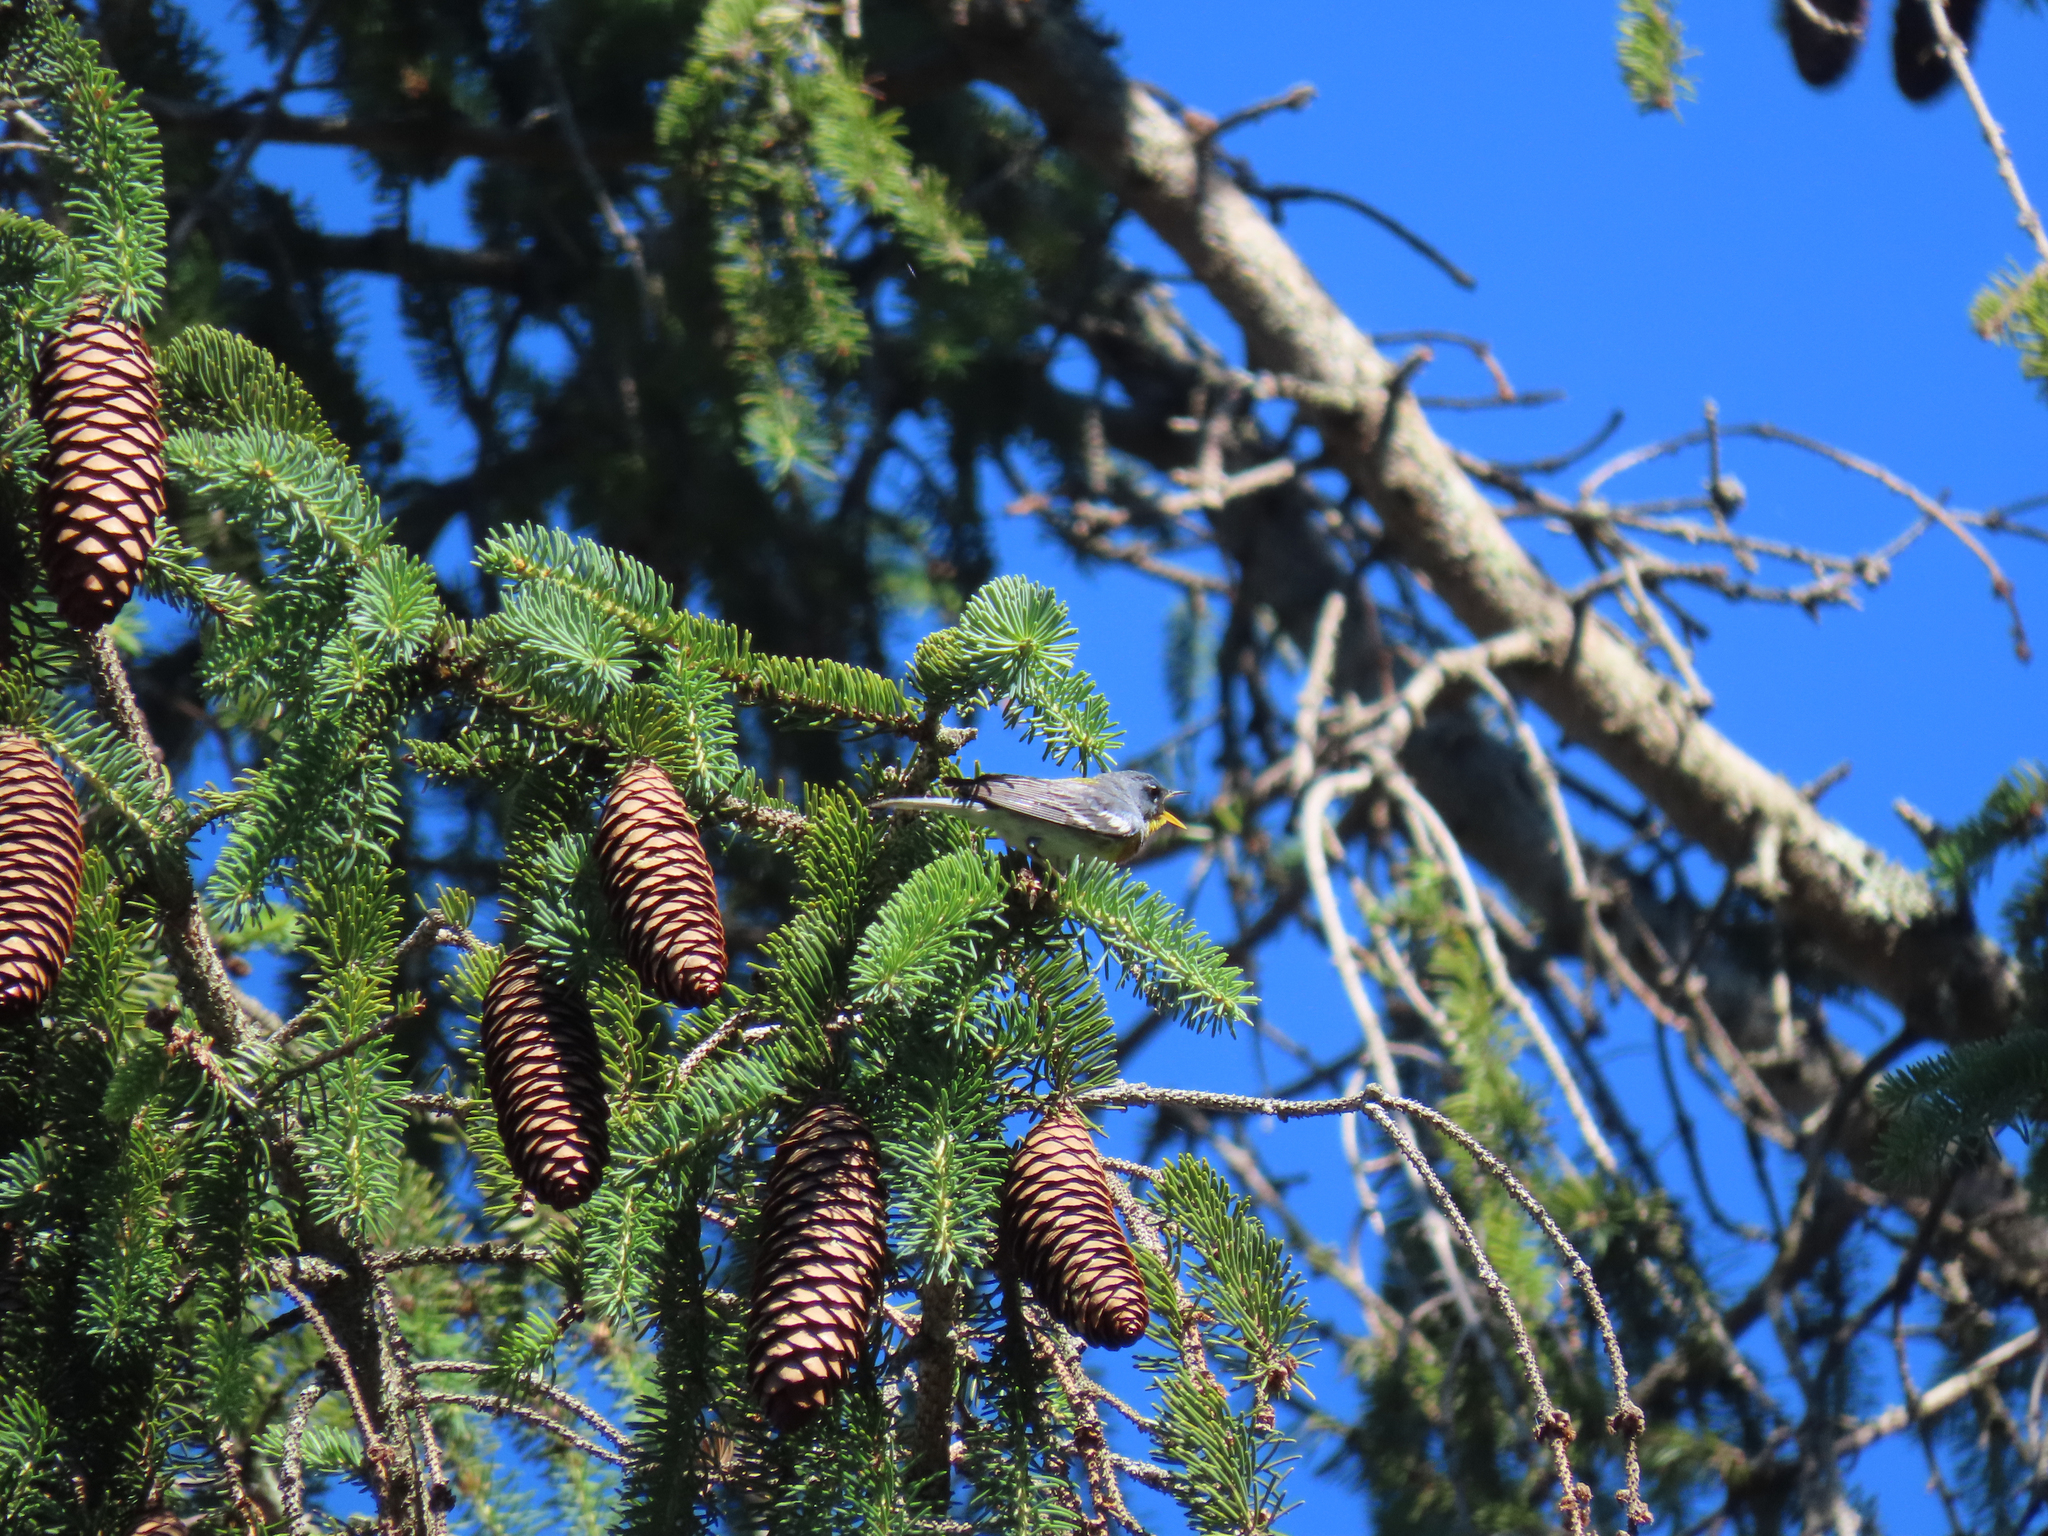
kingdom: Animalia
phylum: Chordata
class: Aves
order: Passeriformes
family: Parulidae
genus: Setophaga
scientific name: Setophaga americana
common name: Northern parula
